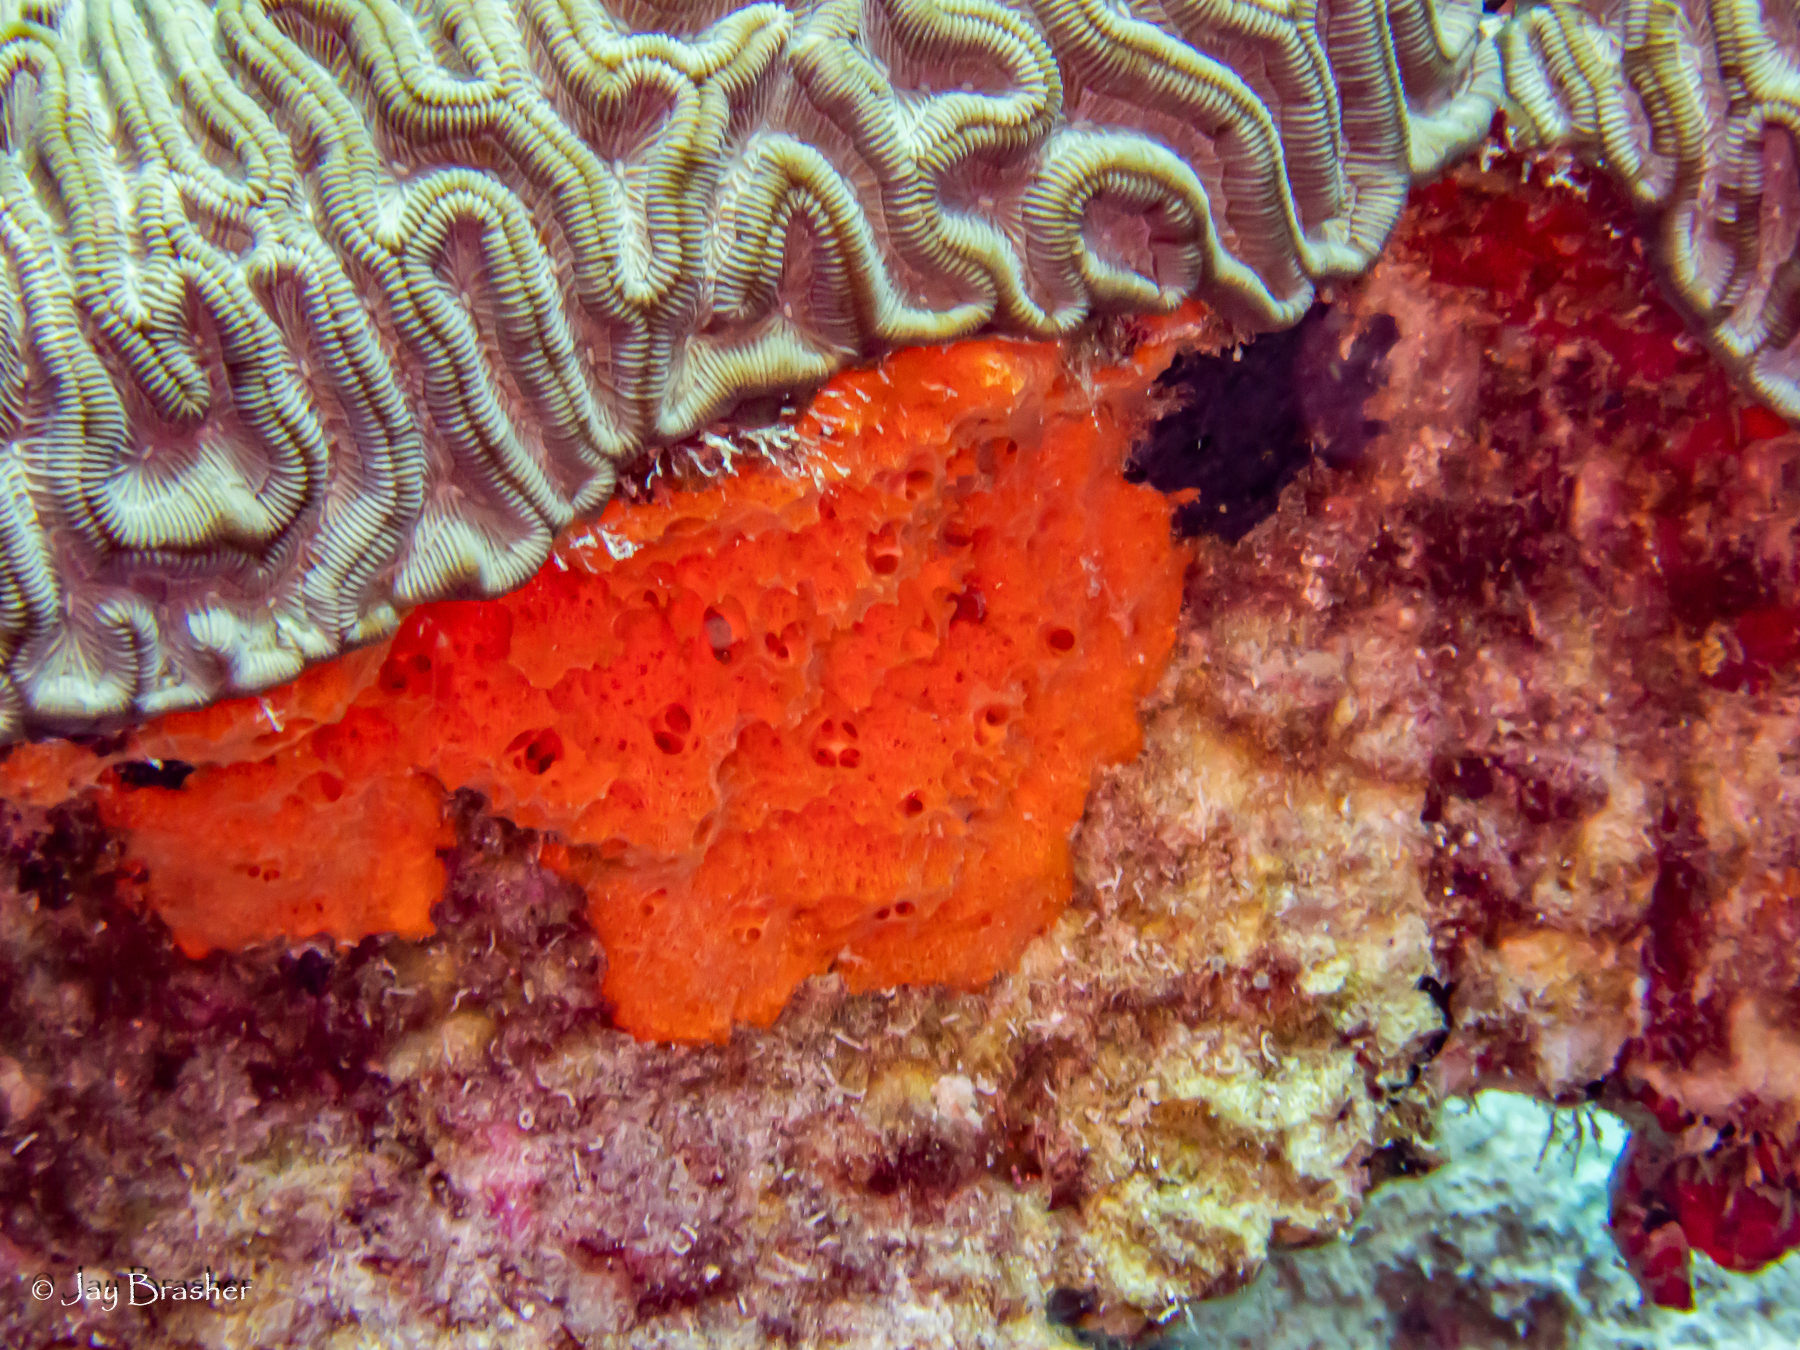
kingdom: Animalia
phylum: Cnidaria
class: Anthozoa
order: Scleractinia
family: Faviidae
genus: Colpophyllia
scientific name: Colpophyllia natans
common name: Boulder brain coral
